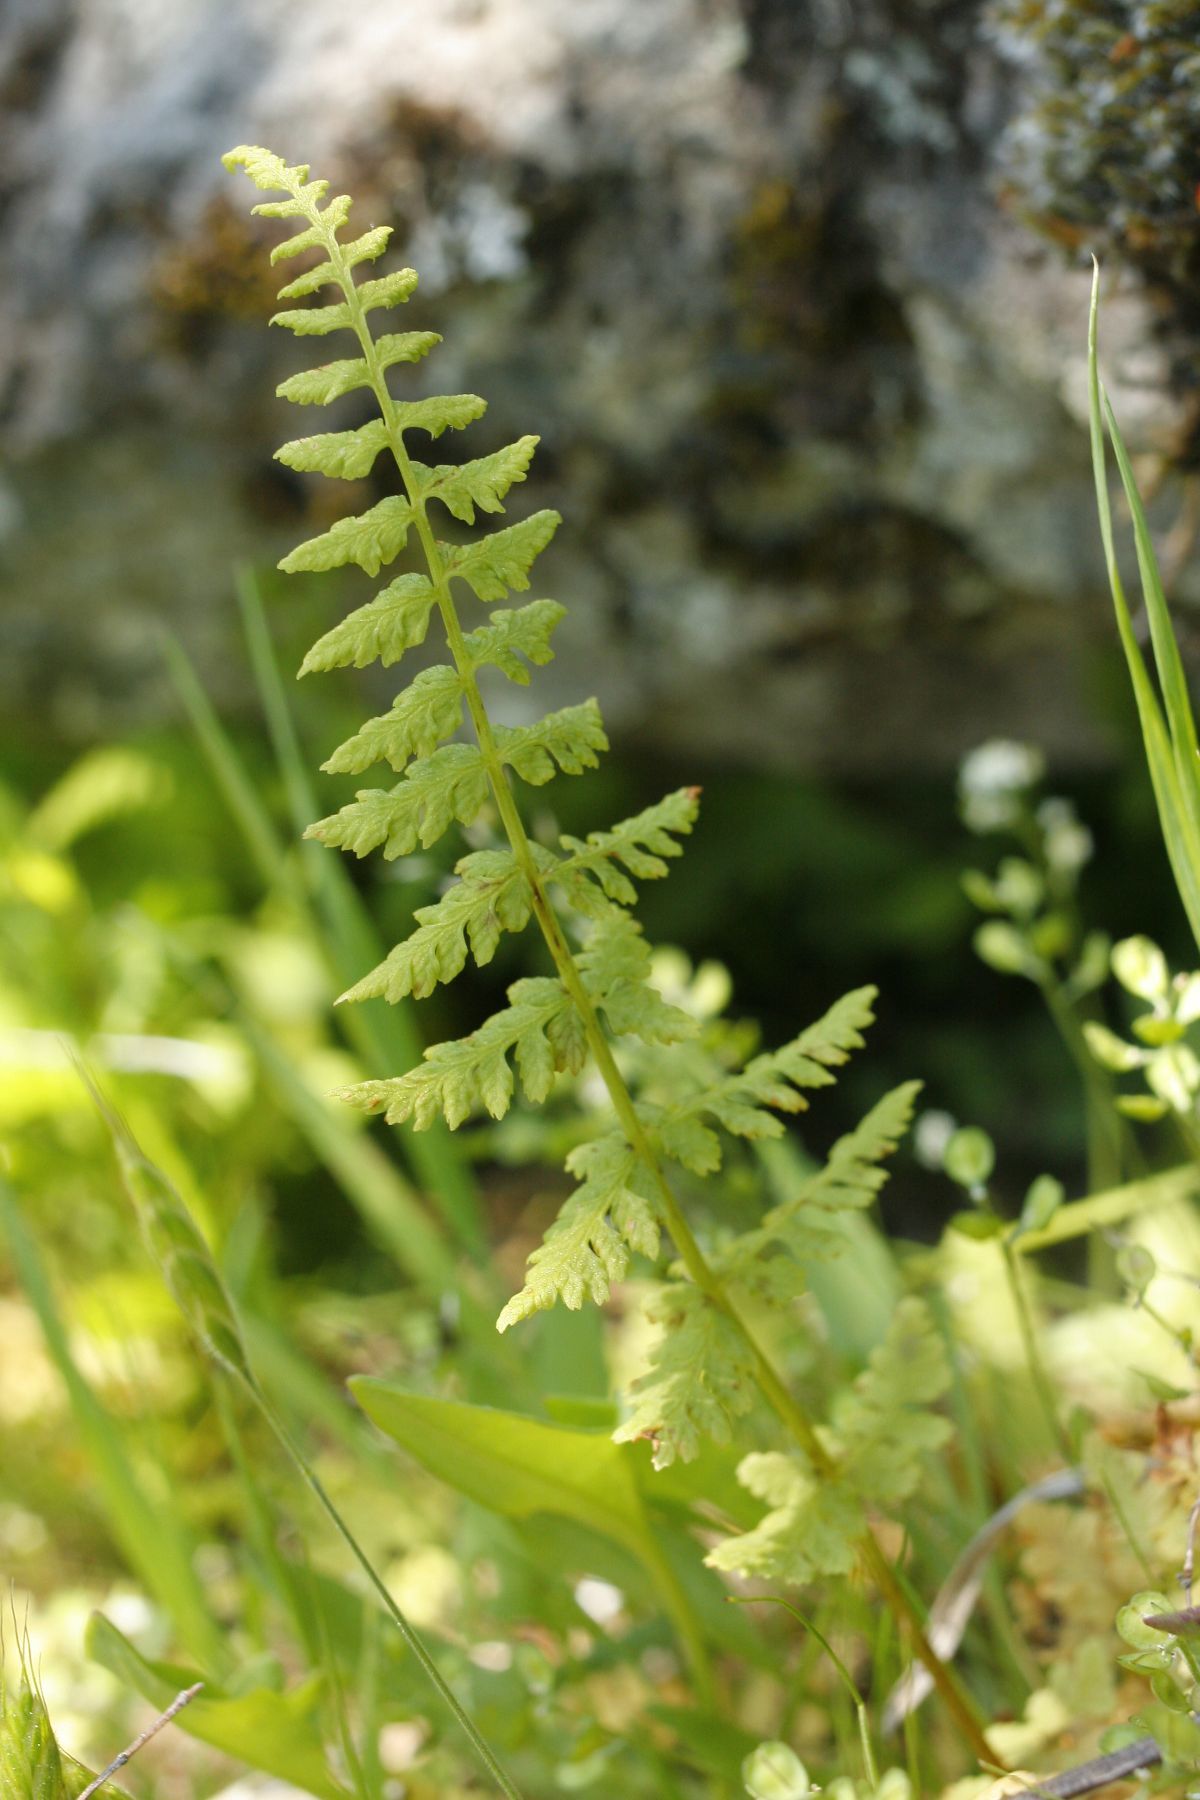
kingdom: Plantae
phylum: Tracheophyta
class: Polypodiopsida
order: Polypodiales
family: Cystopteridaceae
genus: Cystopteris
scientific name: Cystopteris fragilis
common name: Brittle bladder fern
